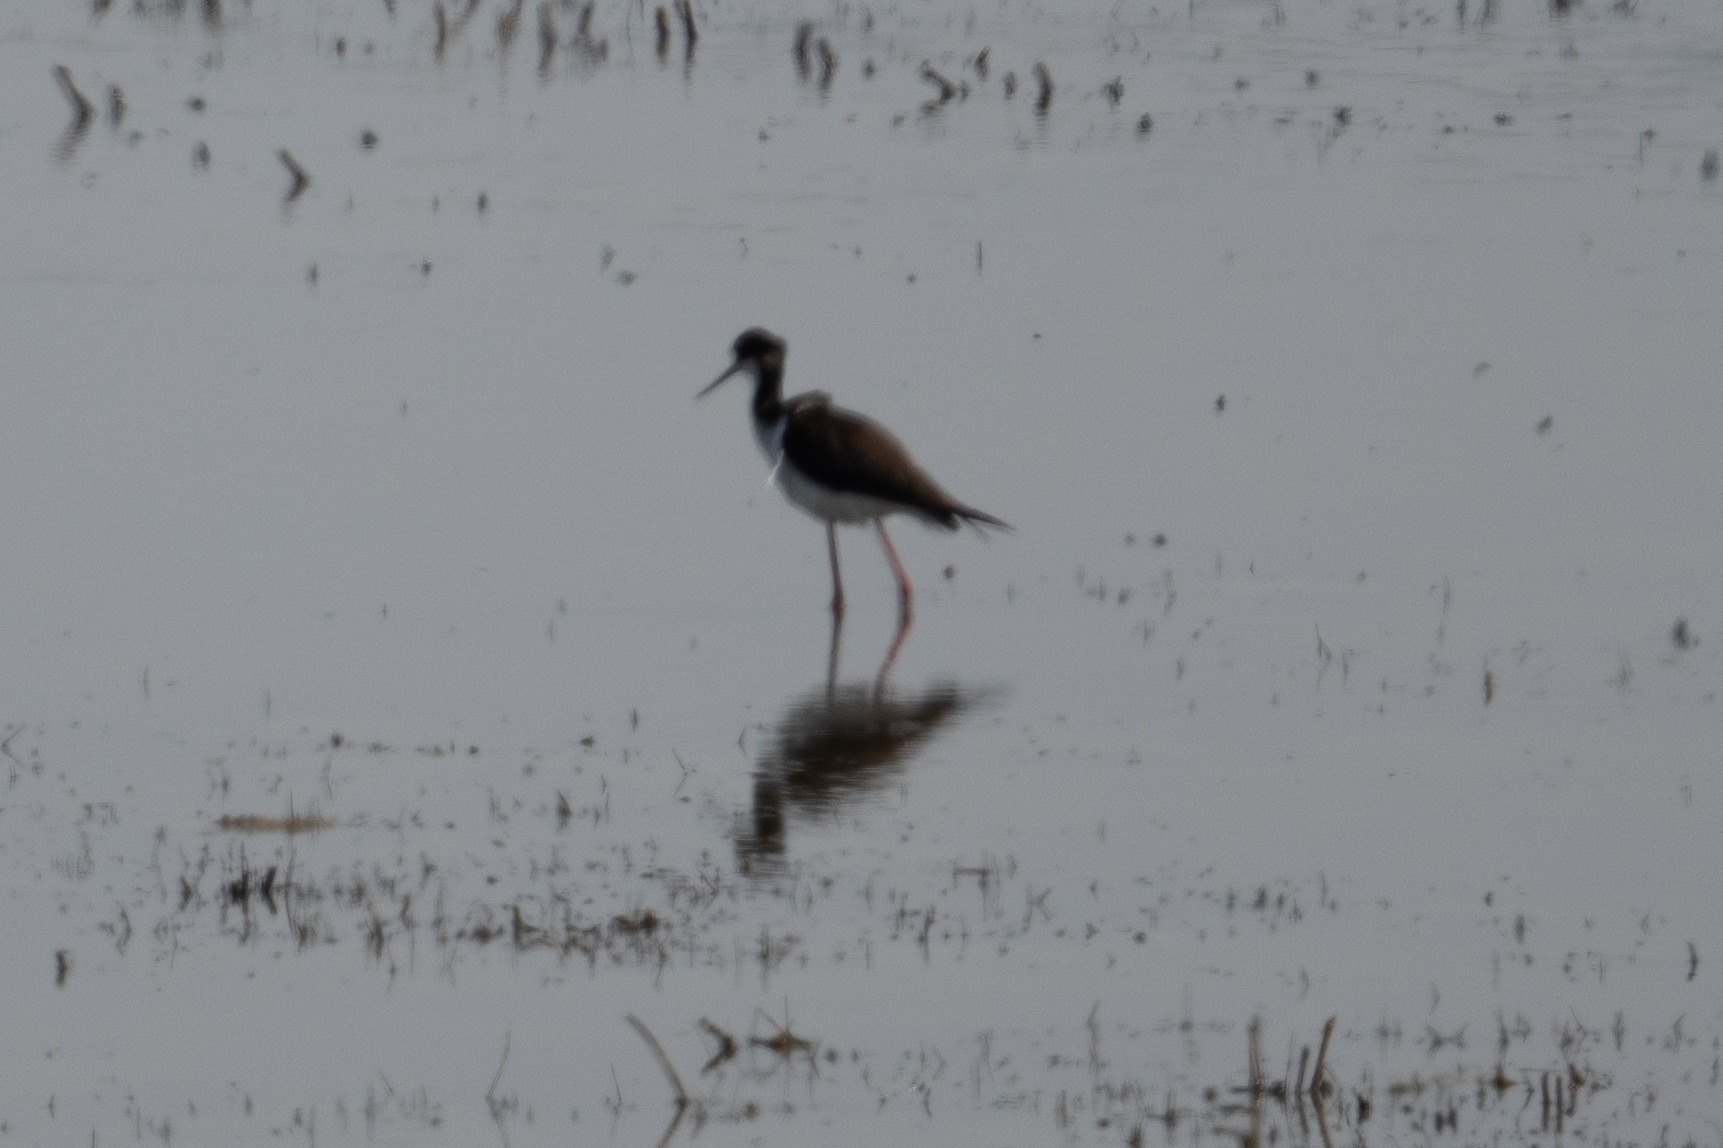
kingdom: Animalia
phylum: Chordata
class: Aves
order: Charadriiformes
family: Recurvirostridae
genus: Himantopus
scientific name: Himantopus mexicanus
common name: Black-necked stilt
